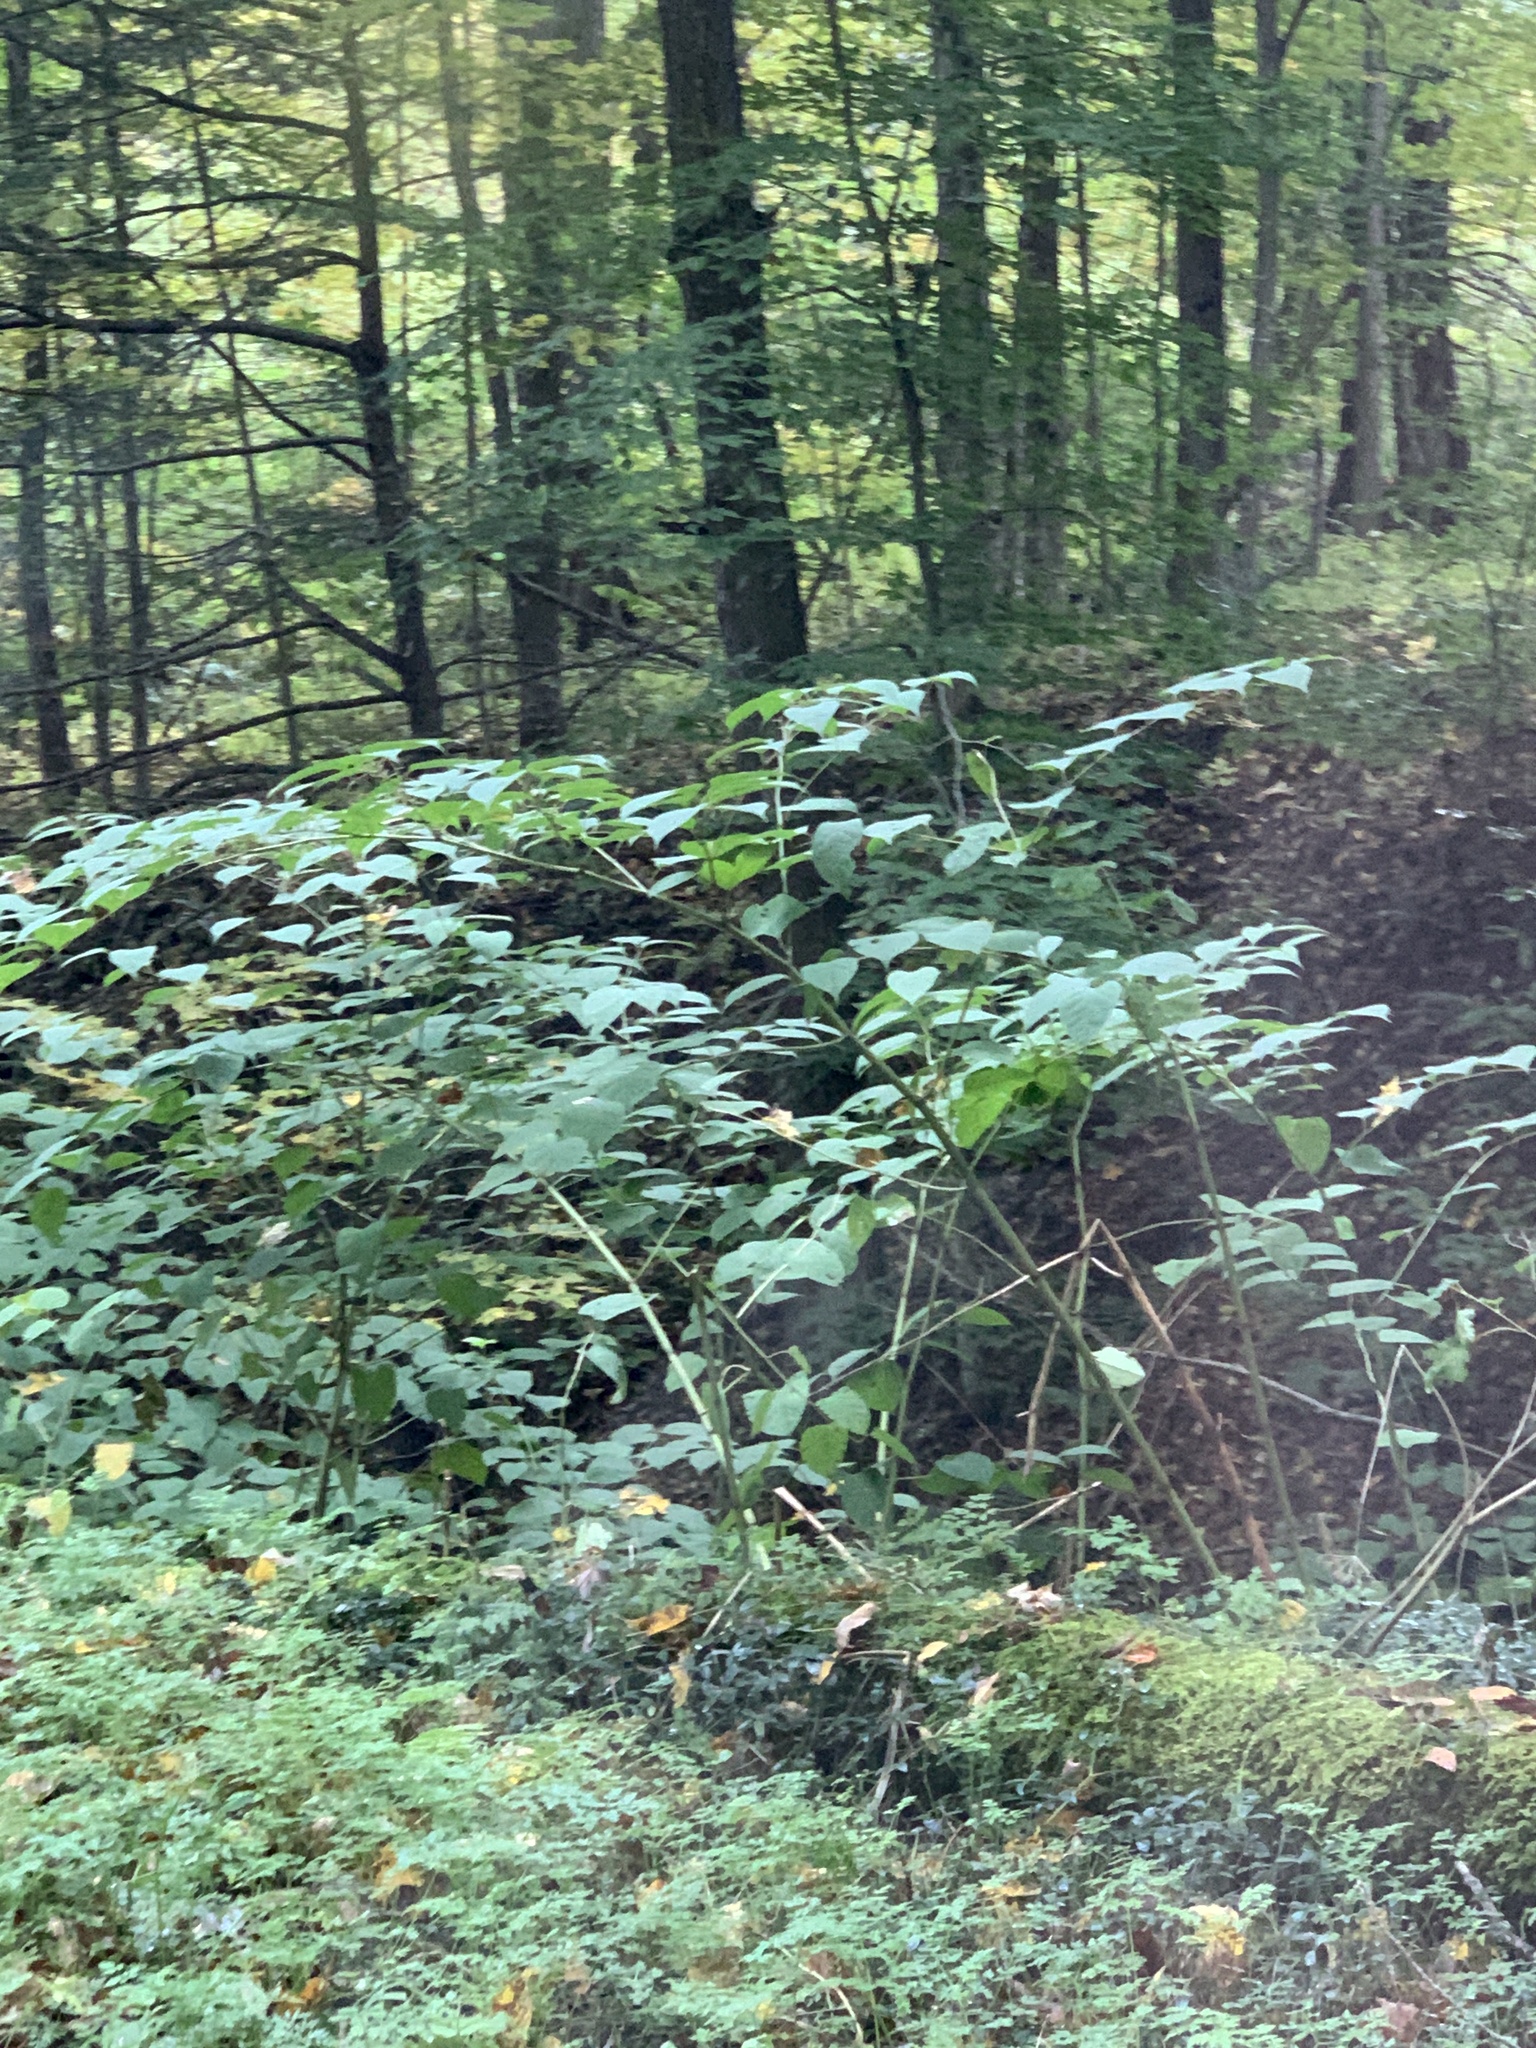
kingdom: Plantae
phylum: Tracheophyta
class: Magnoliopsida
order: Caryophyllales
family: Polygonaceae
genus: Reynoutria
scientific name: Reynoutria japonica
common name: Japanese knotweed
